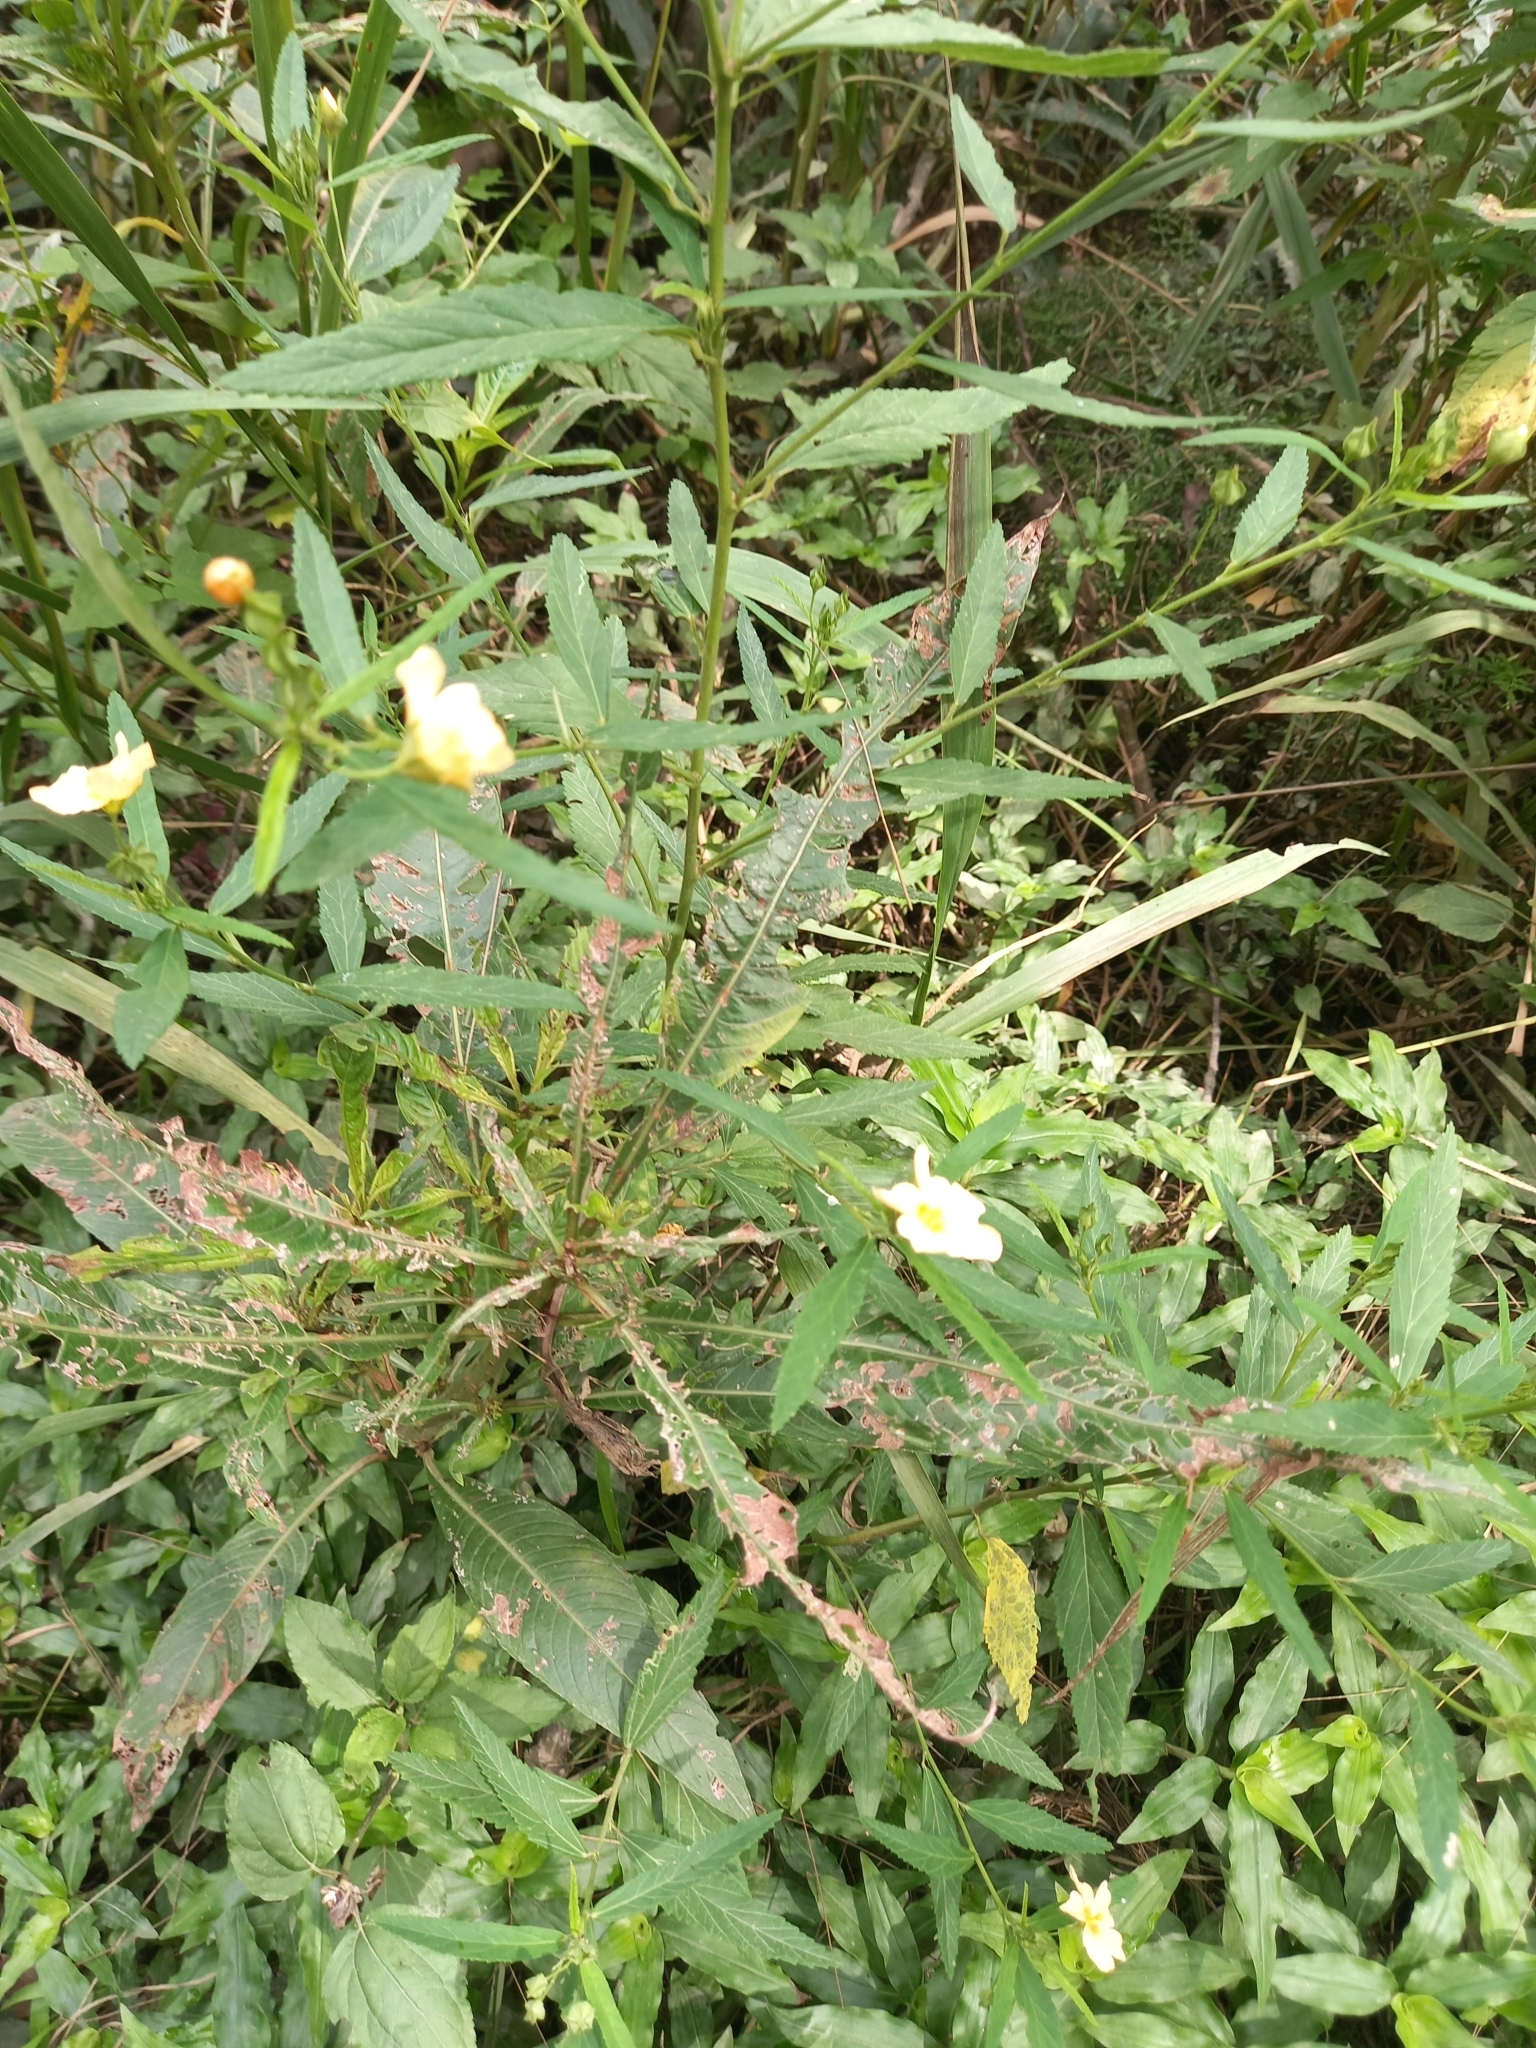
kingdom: Plantae
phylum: Tracheophyta
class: Magnoliopsida
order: Malvales
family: Malvaceae
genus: Sida
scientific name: Sida rhombifolia
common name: Queensland-hemp
